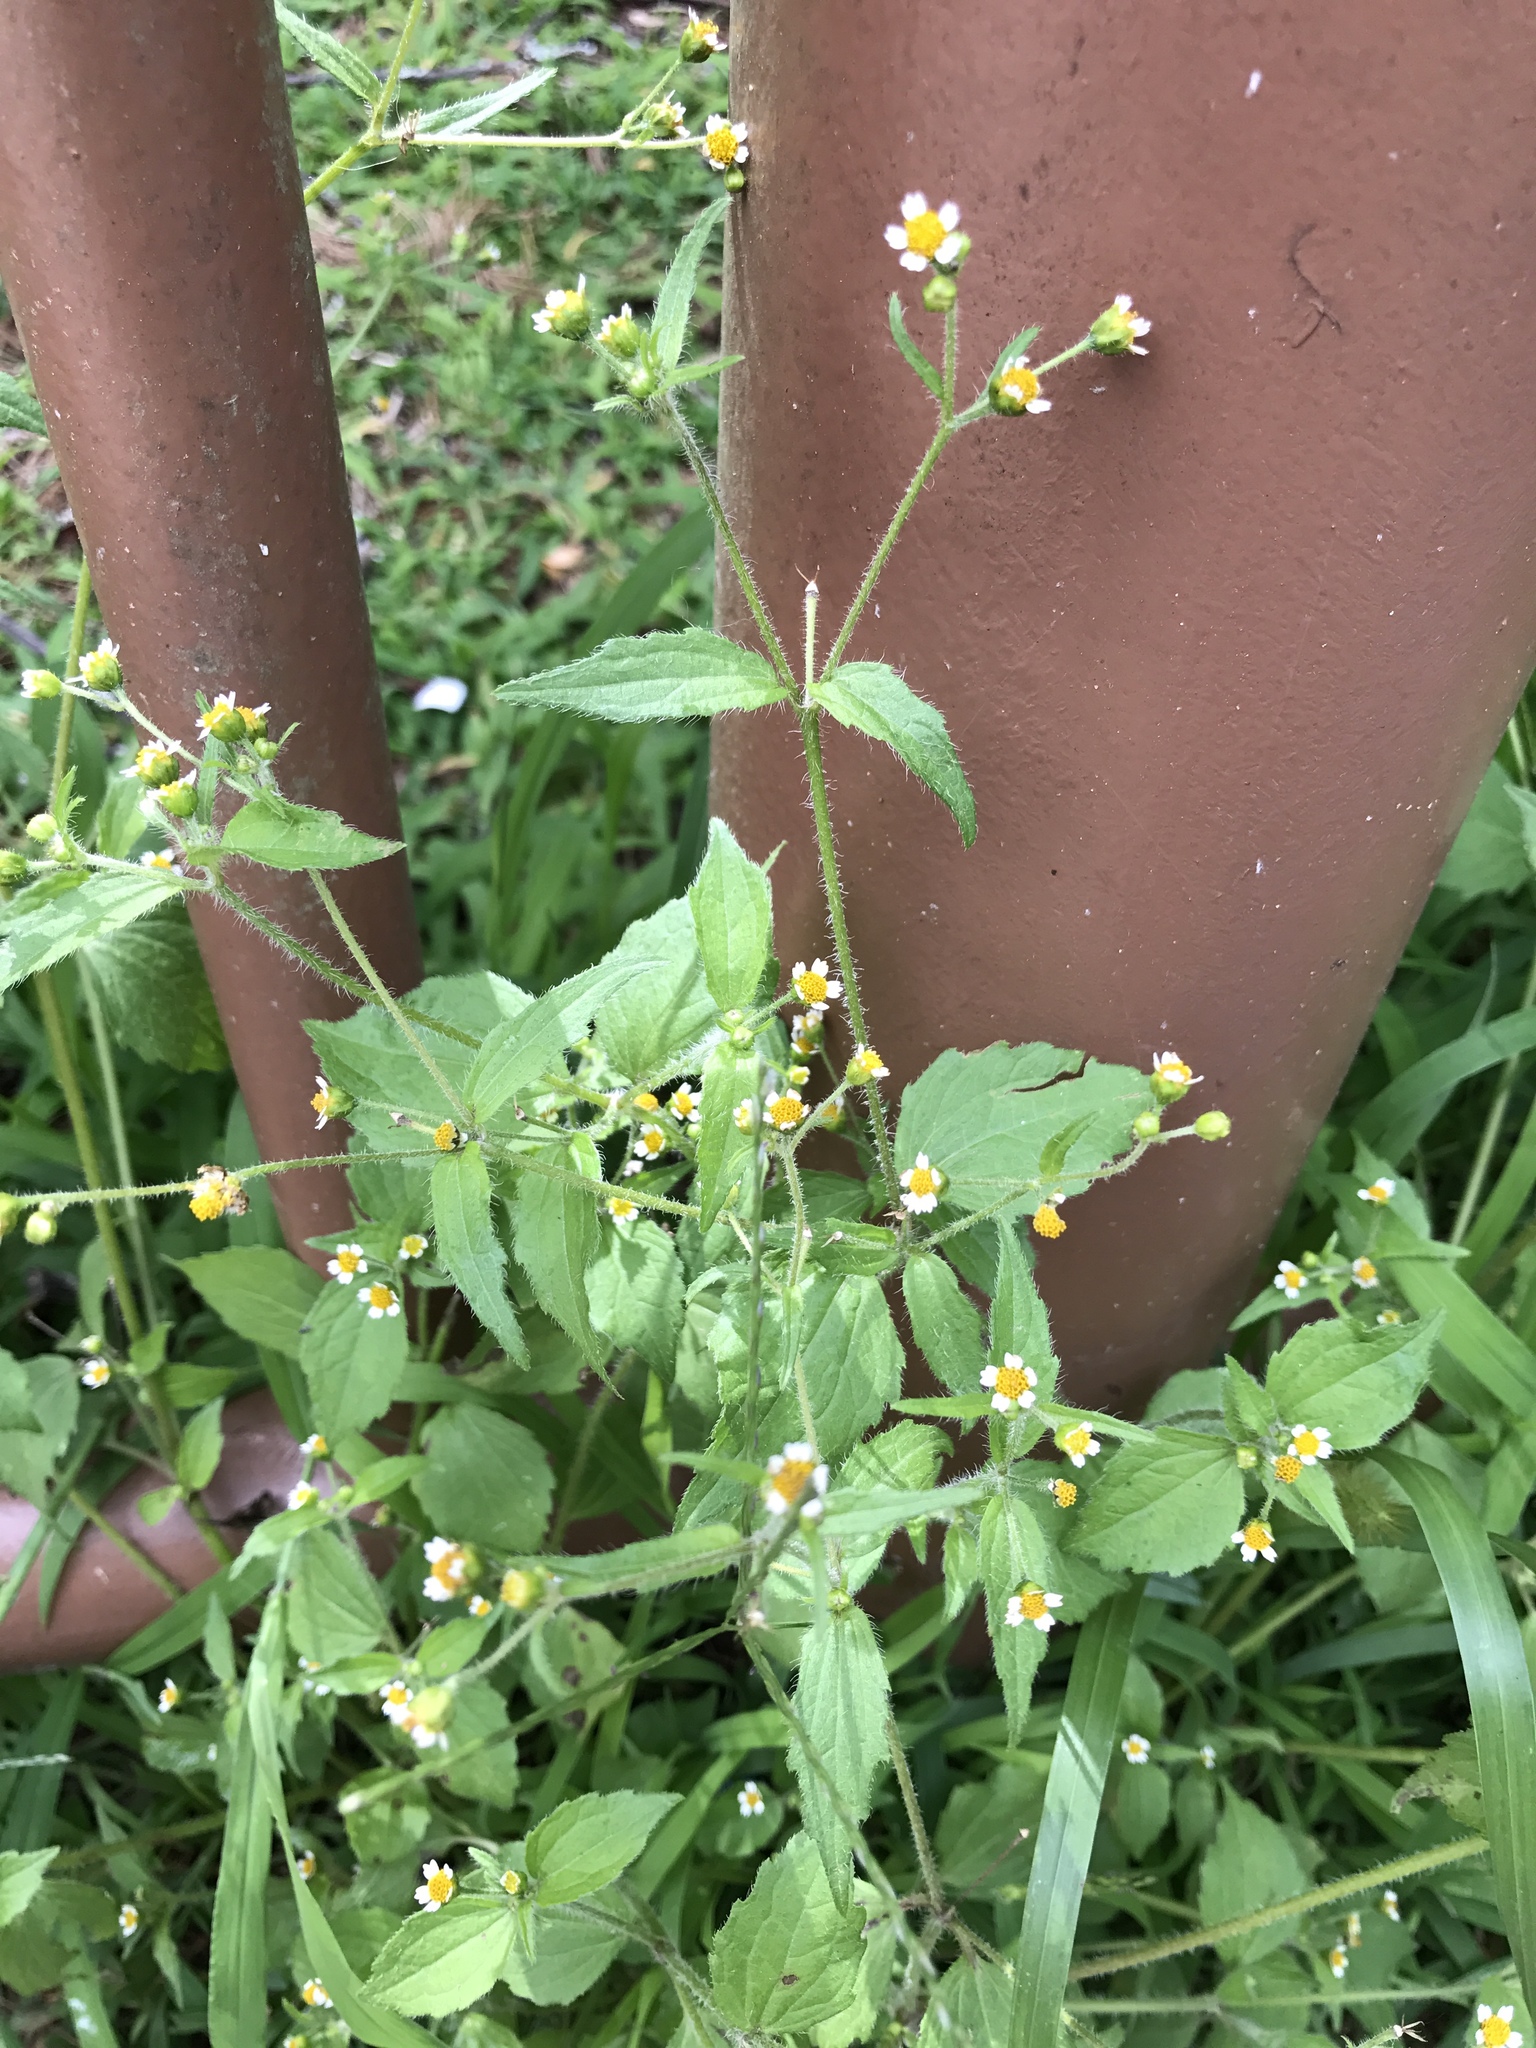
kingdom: Plantae
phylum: Tracheophyta
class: Magnoliopsida
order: Asterales
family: Asteraceae
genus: Galinsoga
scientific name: Galinsoga quadriradiata
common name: Shaggy soldier
